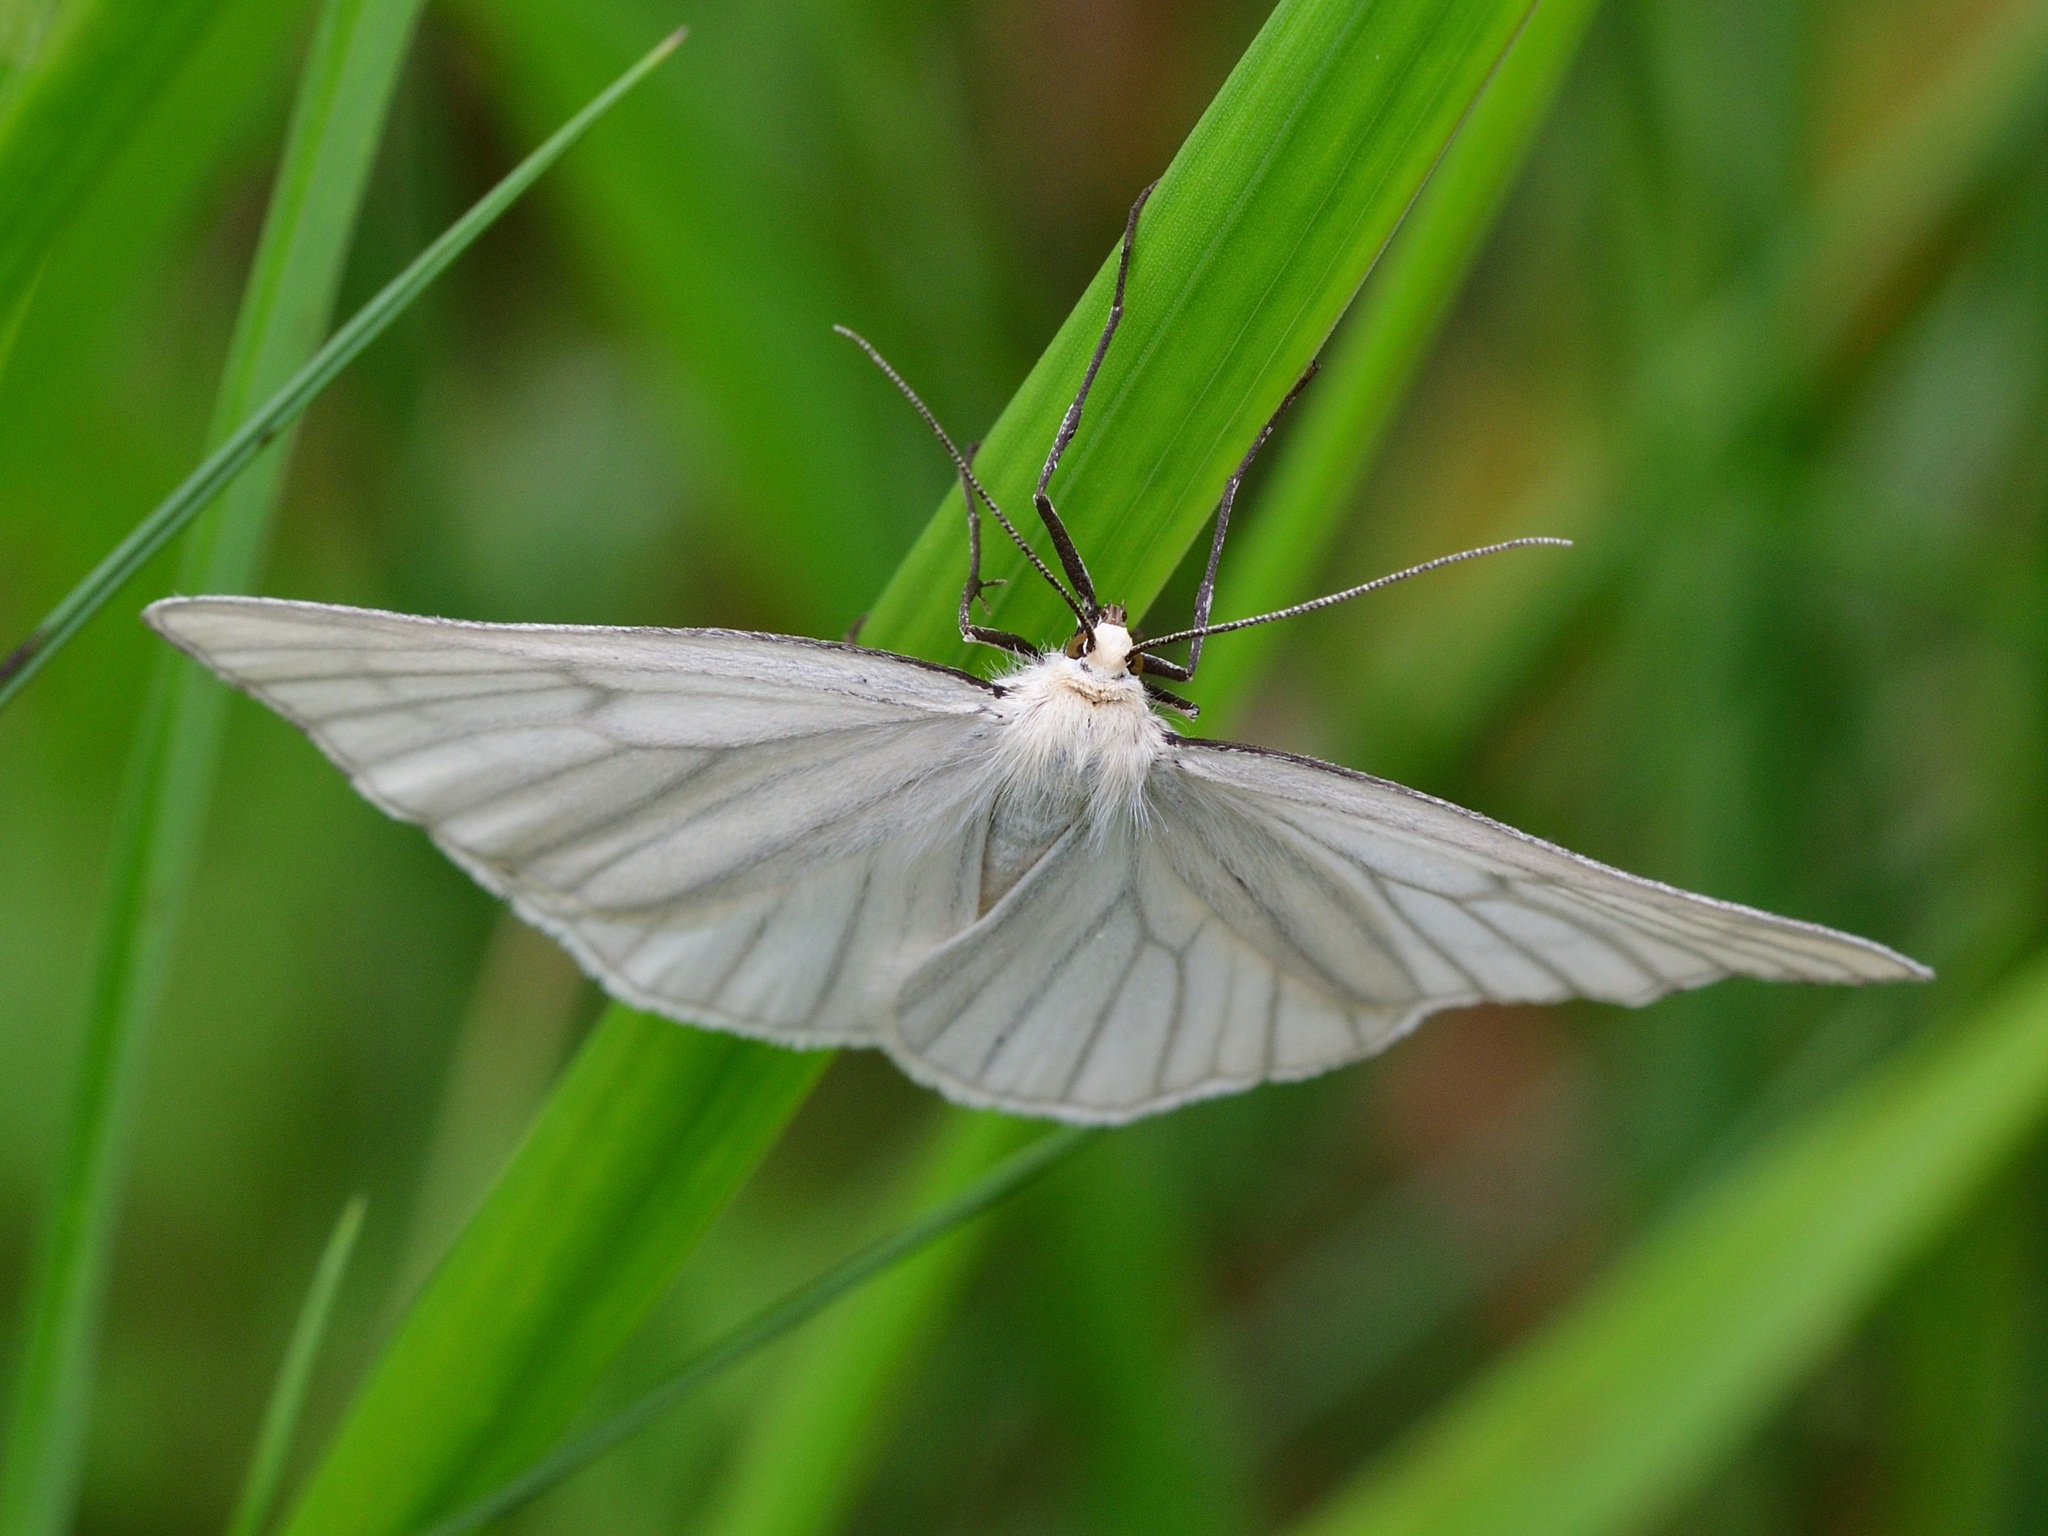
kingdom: Animalia
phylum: Arthropoda
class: Insecta
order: Lepidoptera
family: Geometridae
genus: Siona
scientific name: Siona lineata
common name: Black-veined moth
